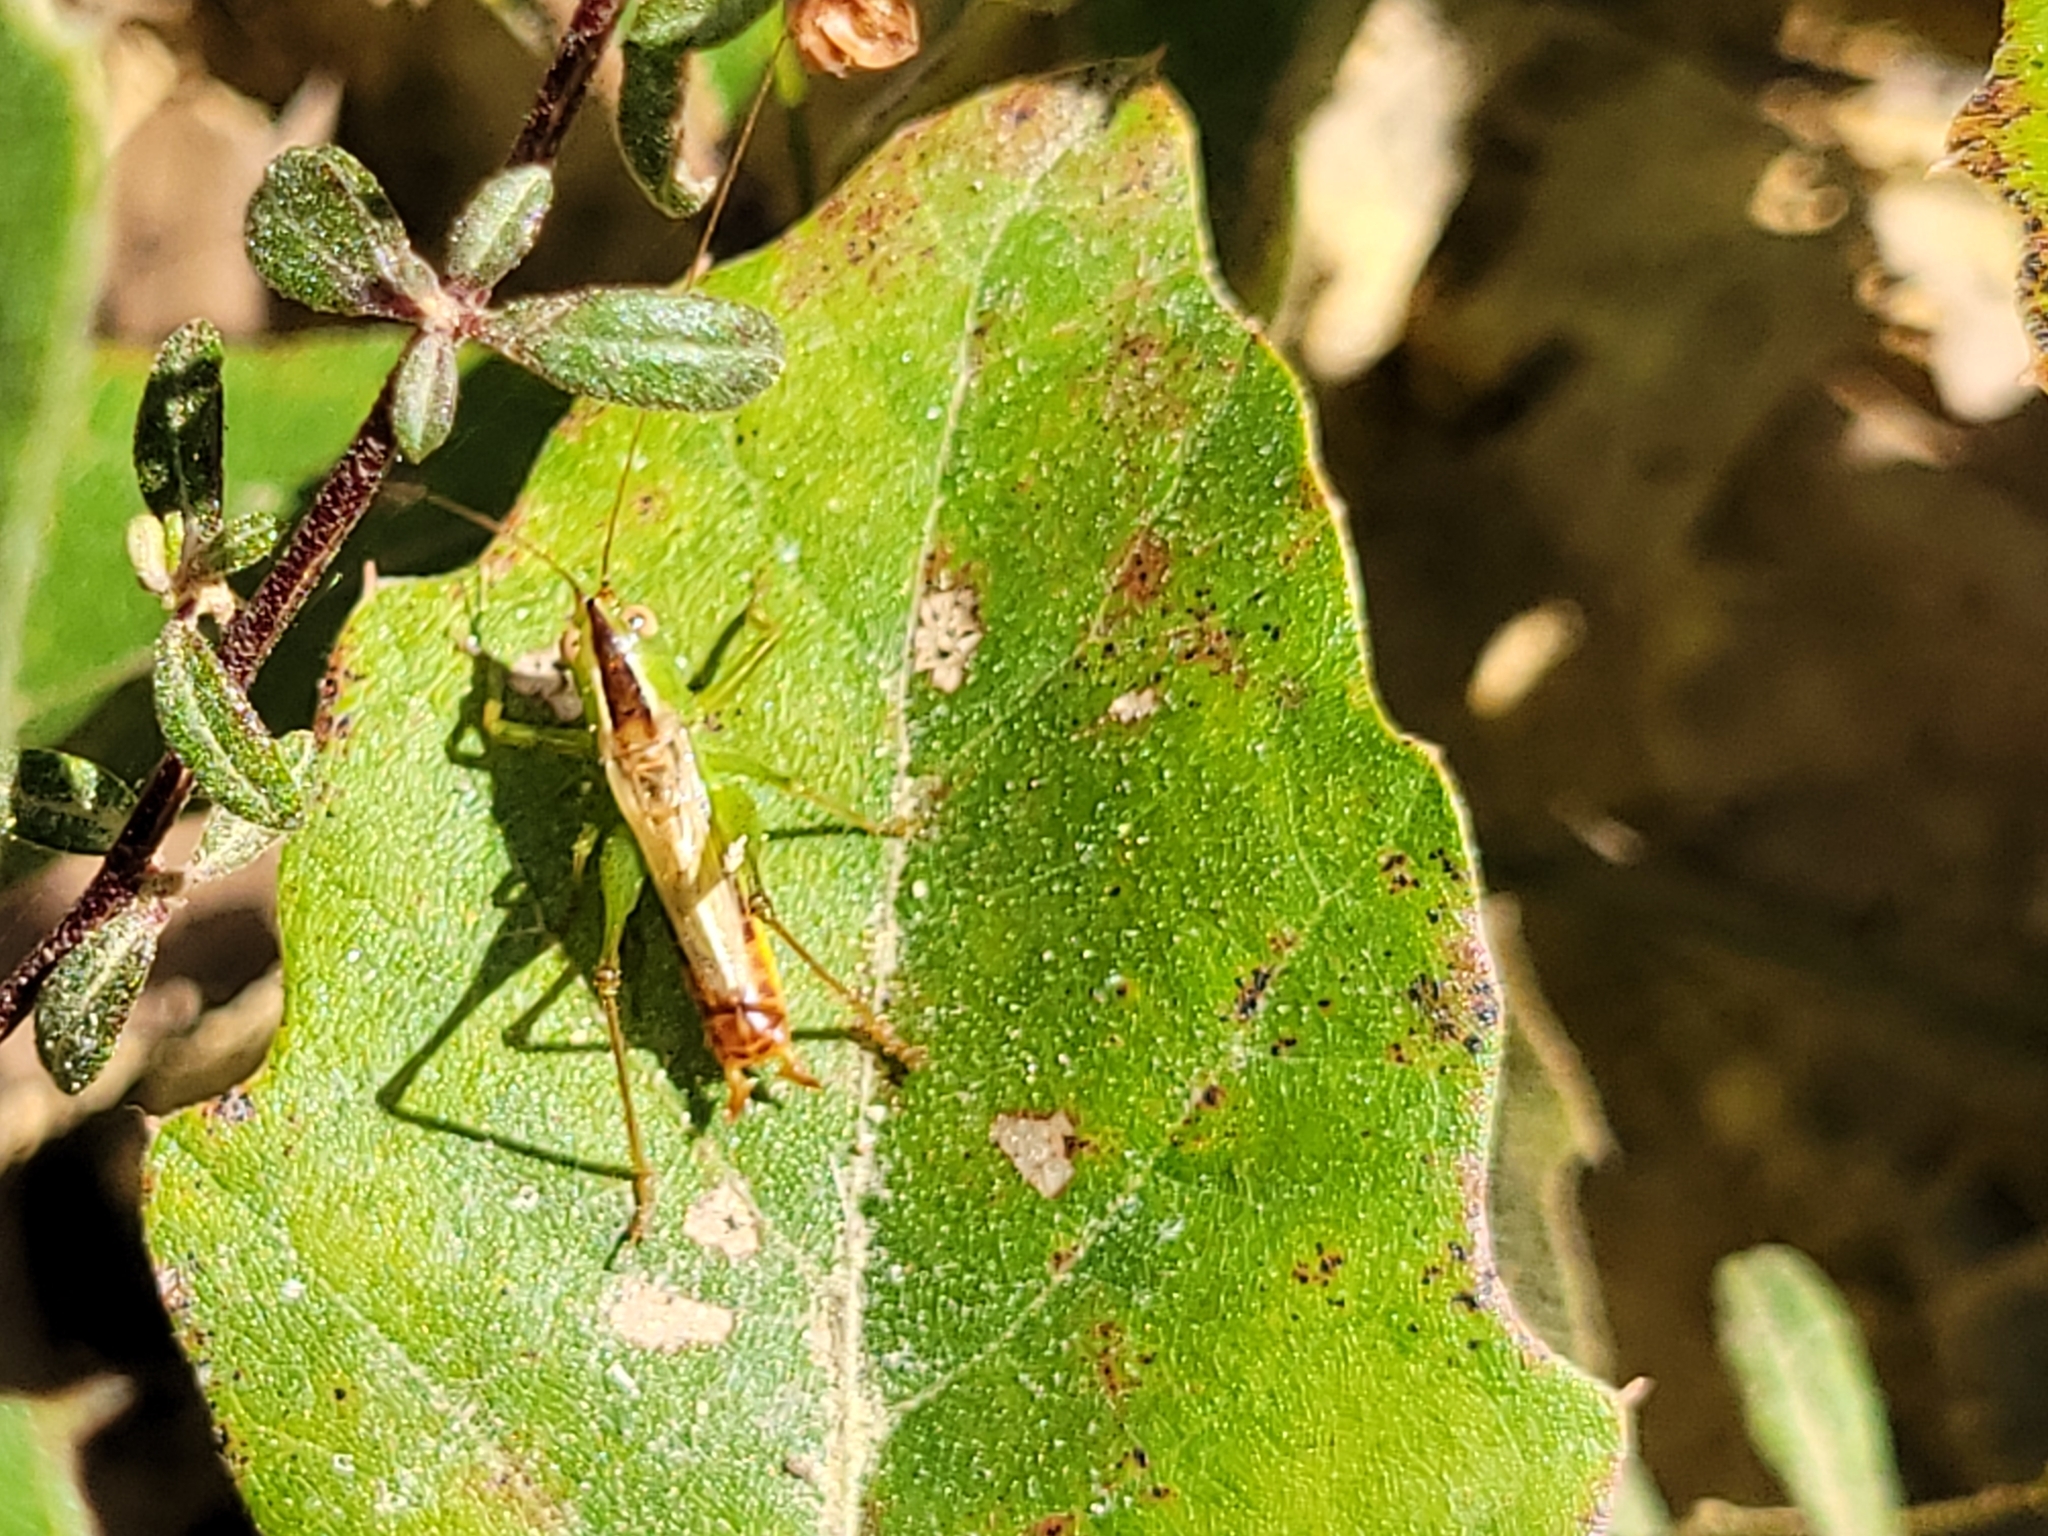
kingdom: Animalia
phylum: Arthropoda
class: Insecta
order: Orthoptera
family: Tettigoniidae
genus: Conocephalus
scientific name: Conocephalus brevipennis
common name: Short-winged meadow katydid
